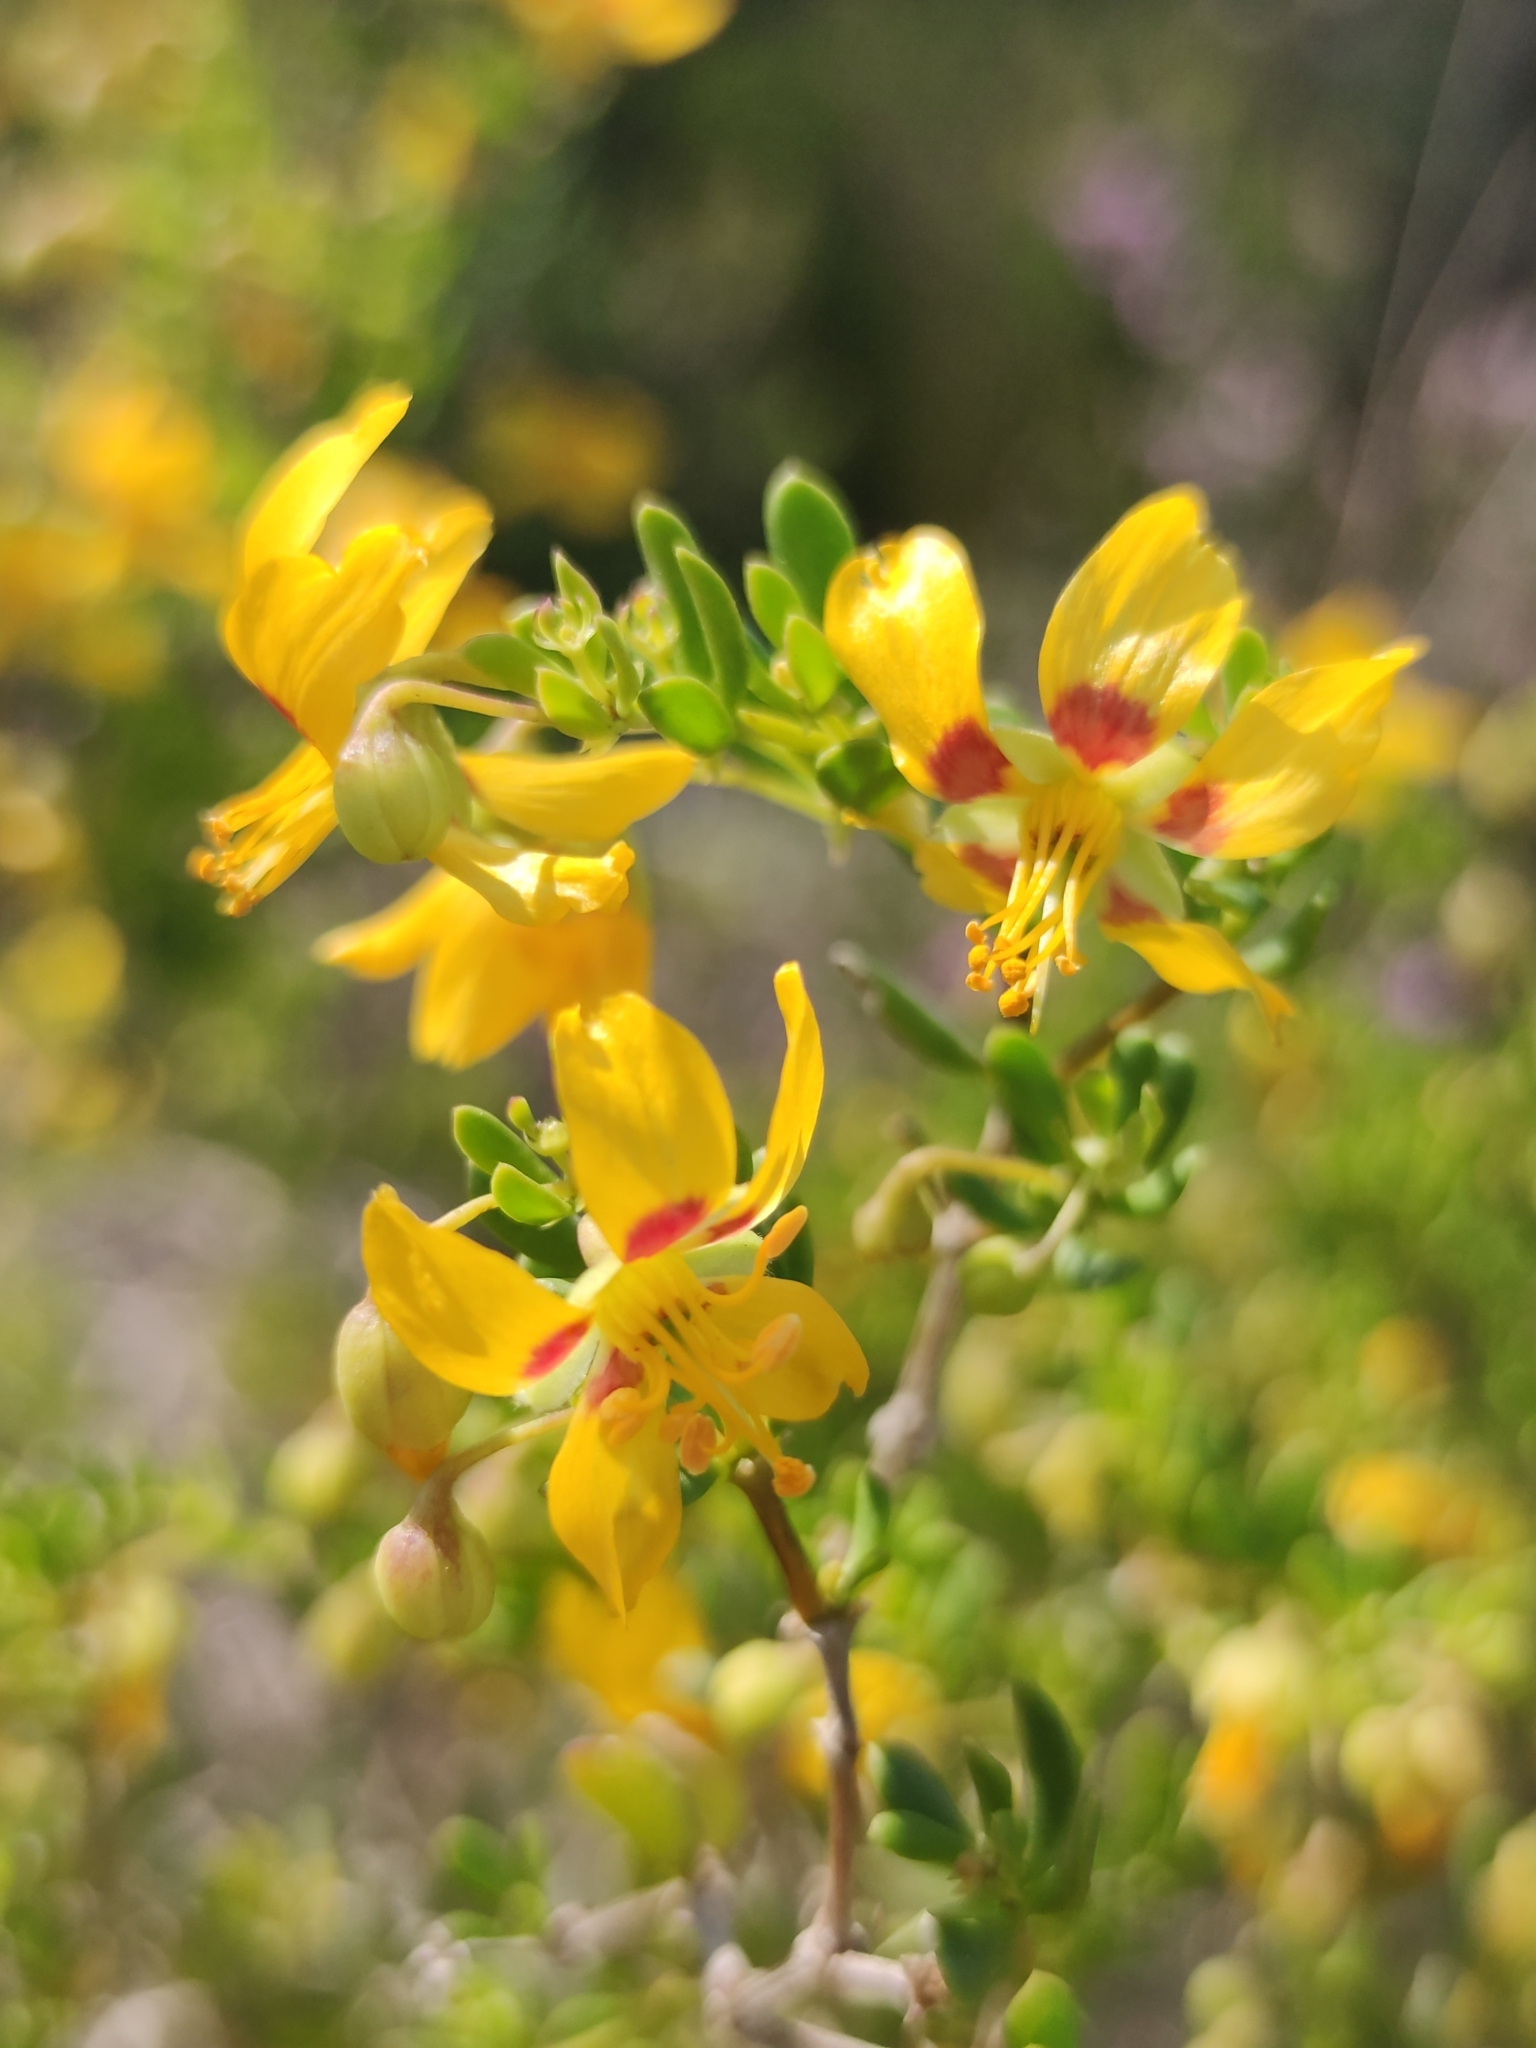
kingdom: Plantae
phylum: Tracheophyta
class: Magnoliopsida
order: Zygophyllales
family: Zygophyllaceae
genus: Roepera
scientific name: Roepera flexuosa
